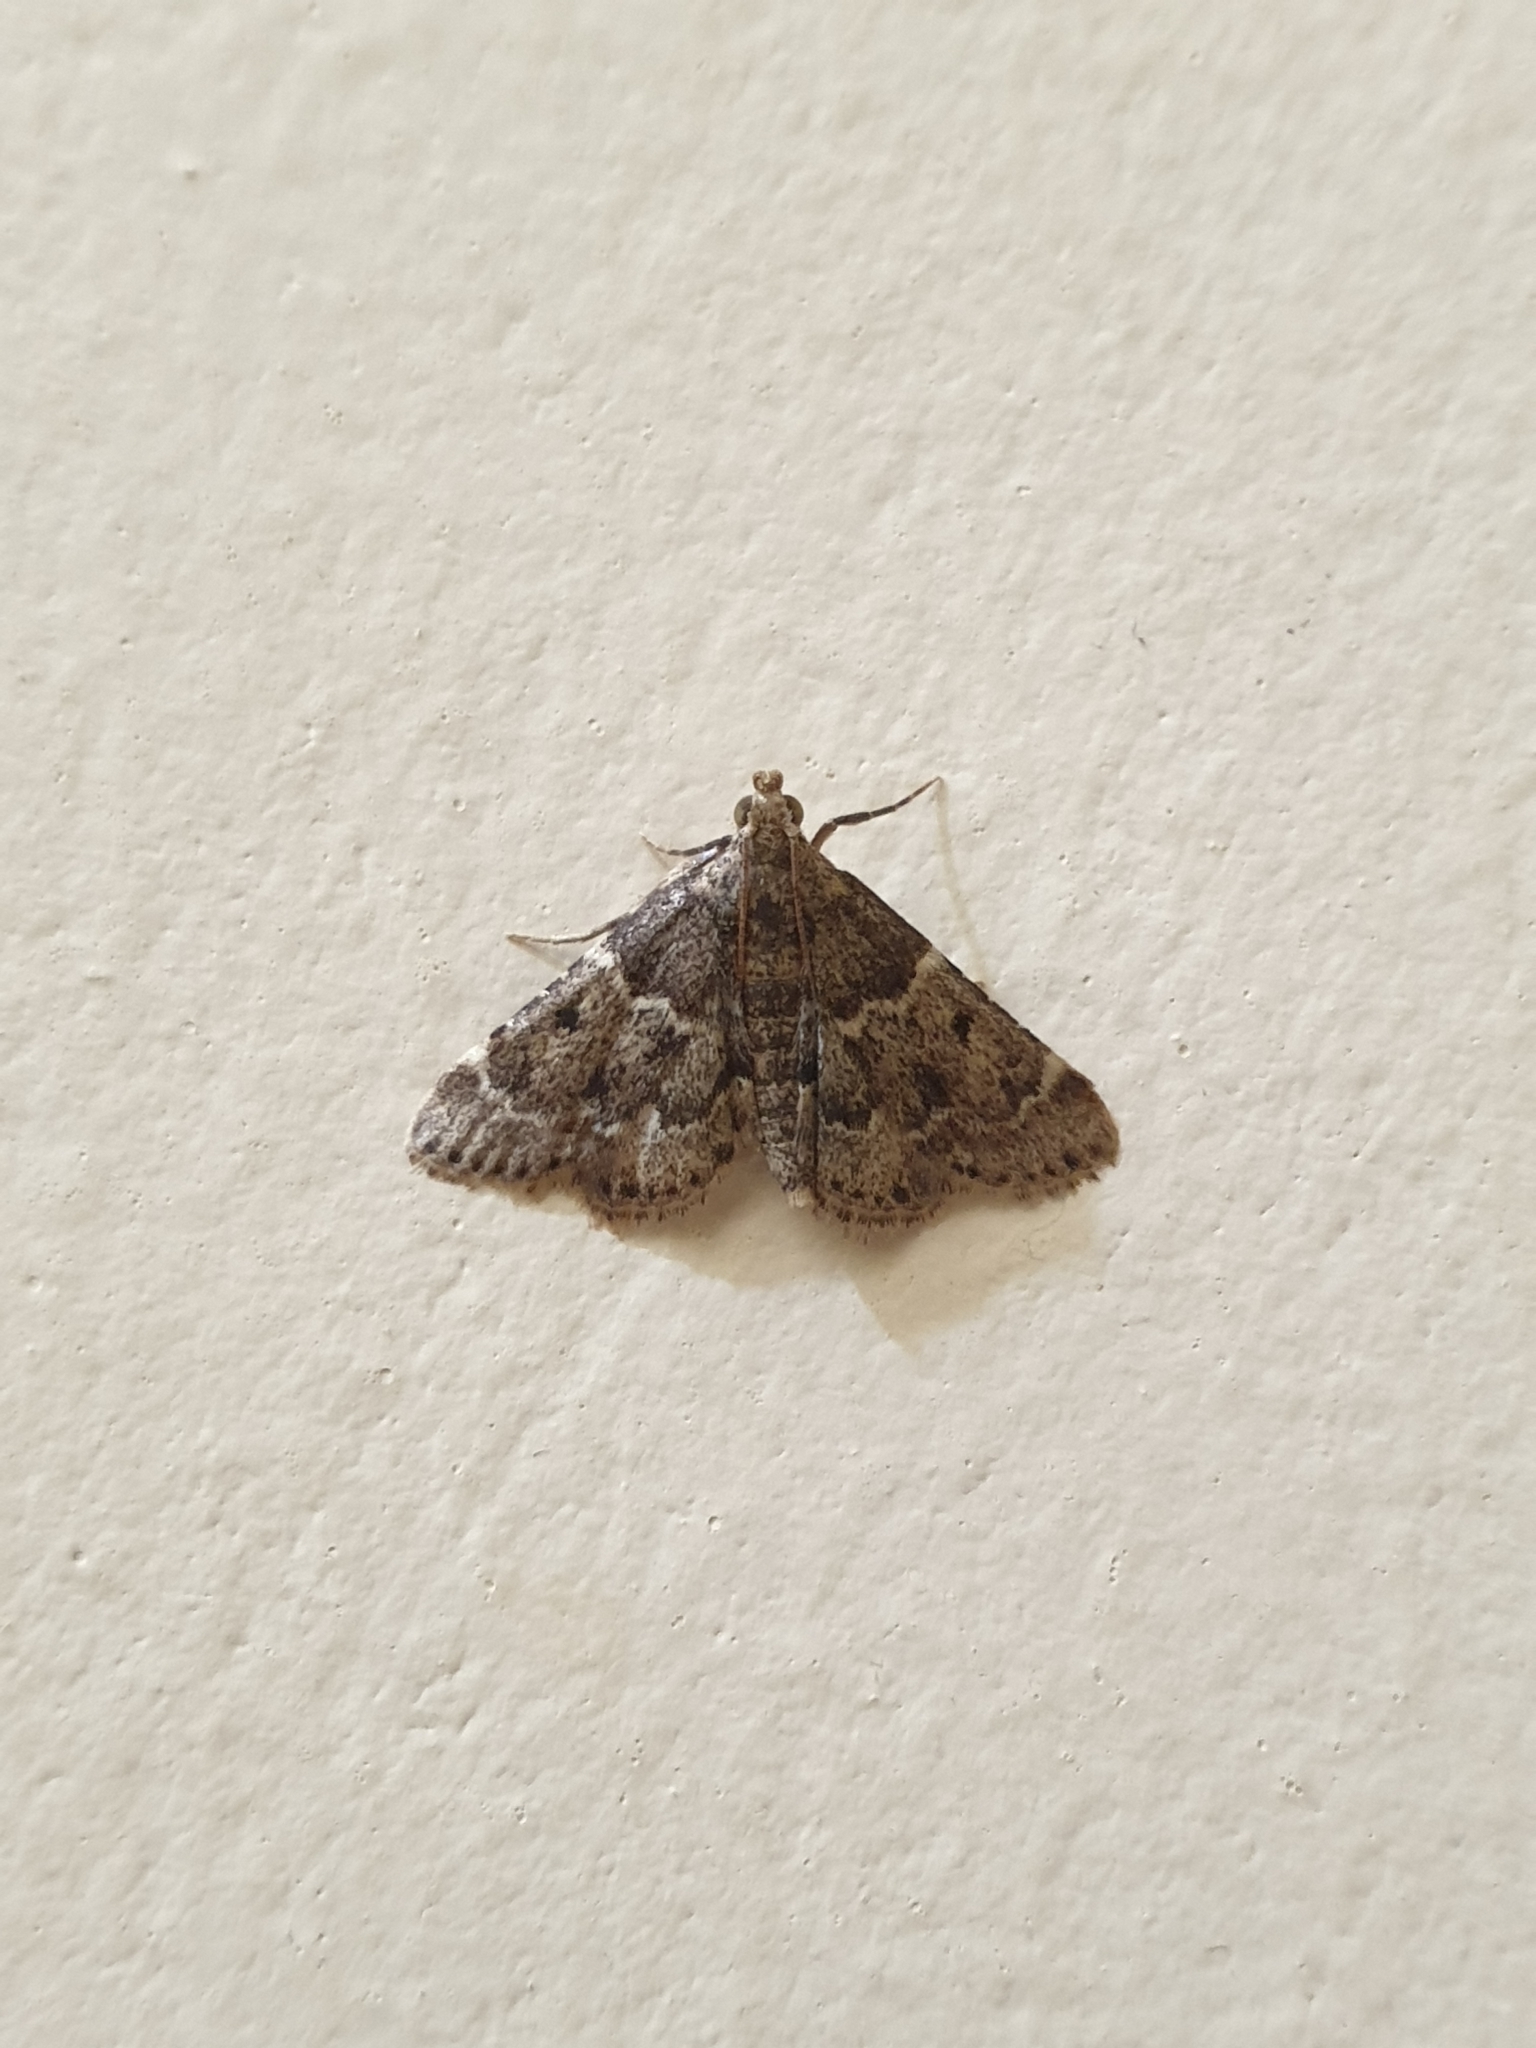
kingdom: Animalia
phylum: Arthropoda
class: Insecta
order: Lepidoptera
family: Pyralidae
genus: Pyralis
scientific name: Pyralis manihotalis
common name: Moth
